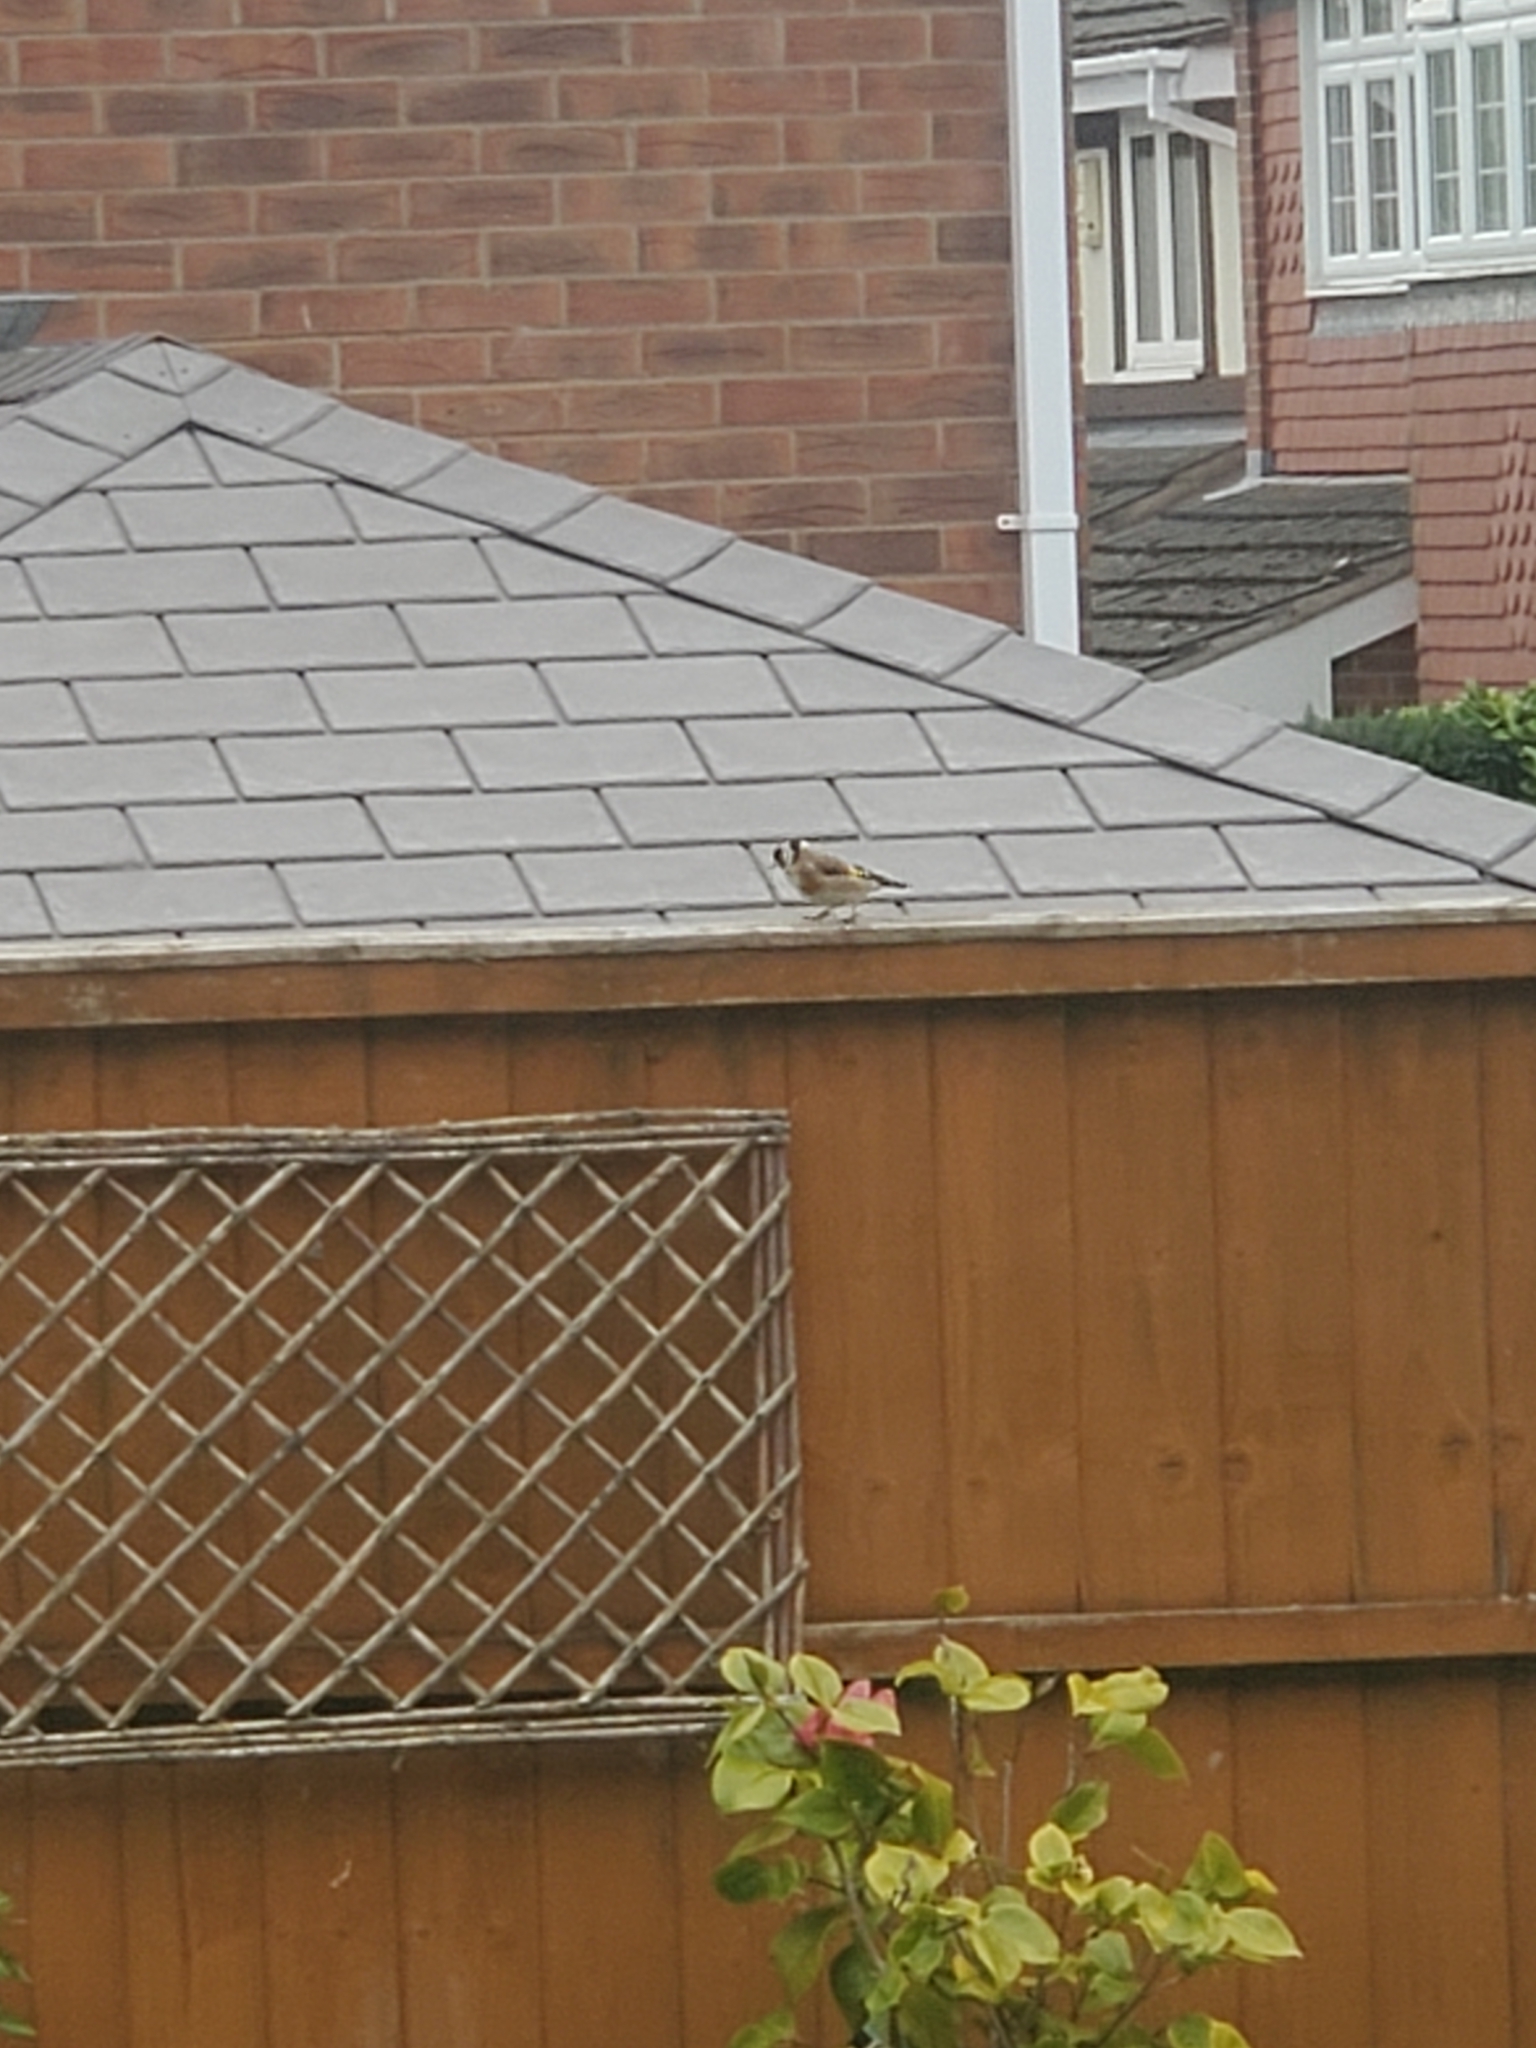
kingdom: Animalia
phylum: Chordata
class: Aves
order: Passeriformes
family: Fringillidae
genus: Carduelis
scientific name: Carduelis carduelis
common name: European goldfinch
